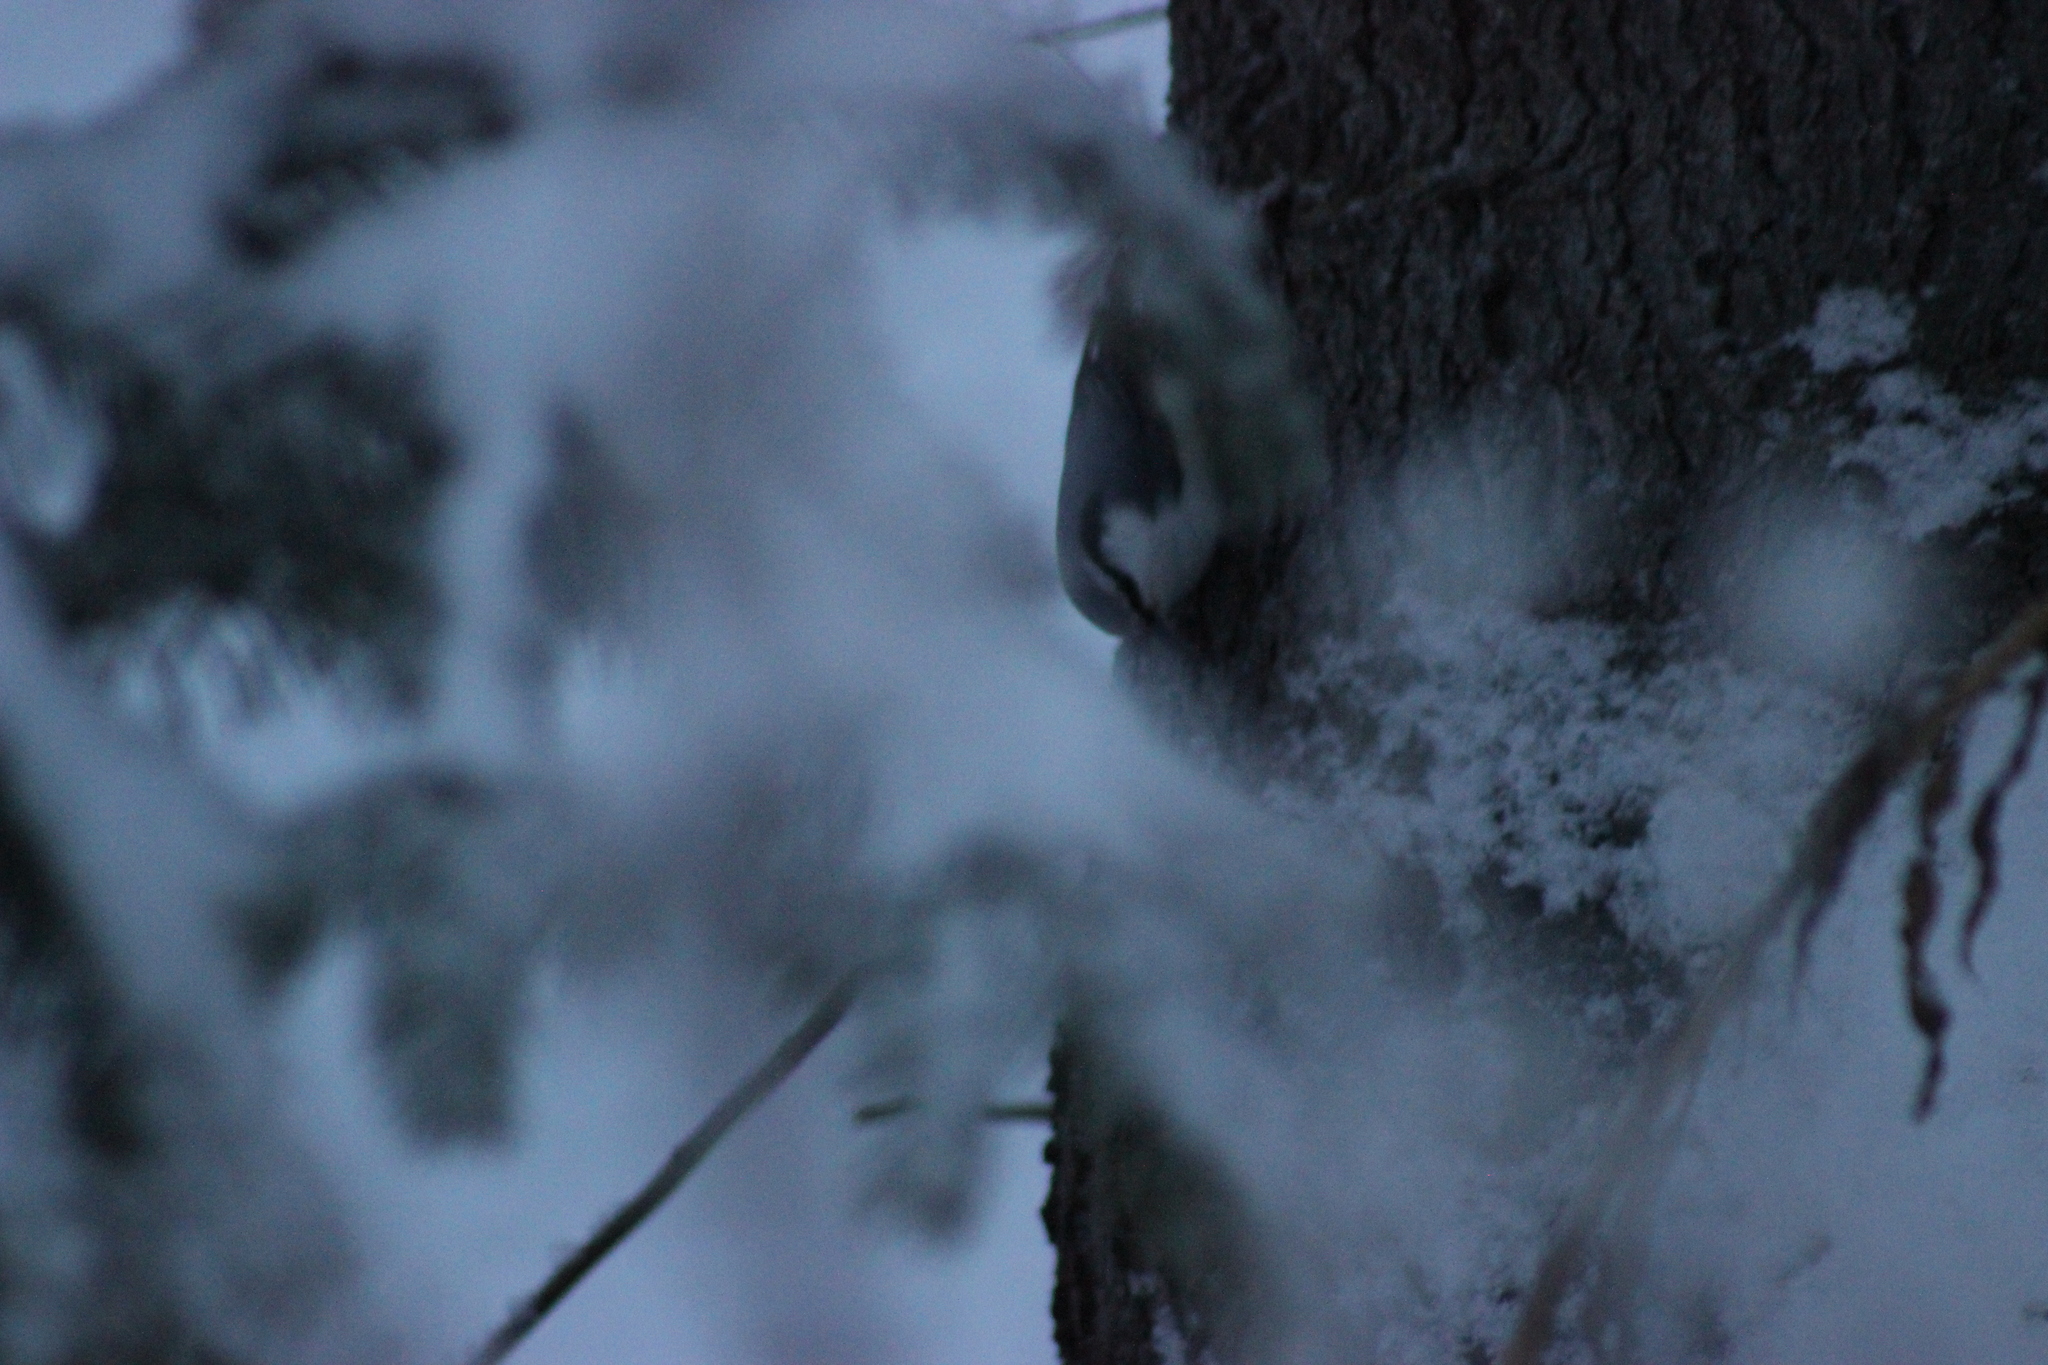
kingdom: Animalia
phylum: Chordata
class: Aves
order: Passeriformes
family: Sittidae
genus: Sitta
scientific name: Sitta europaea
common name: Eurasian nuthatch
